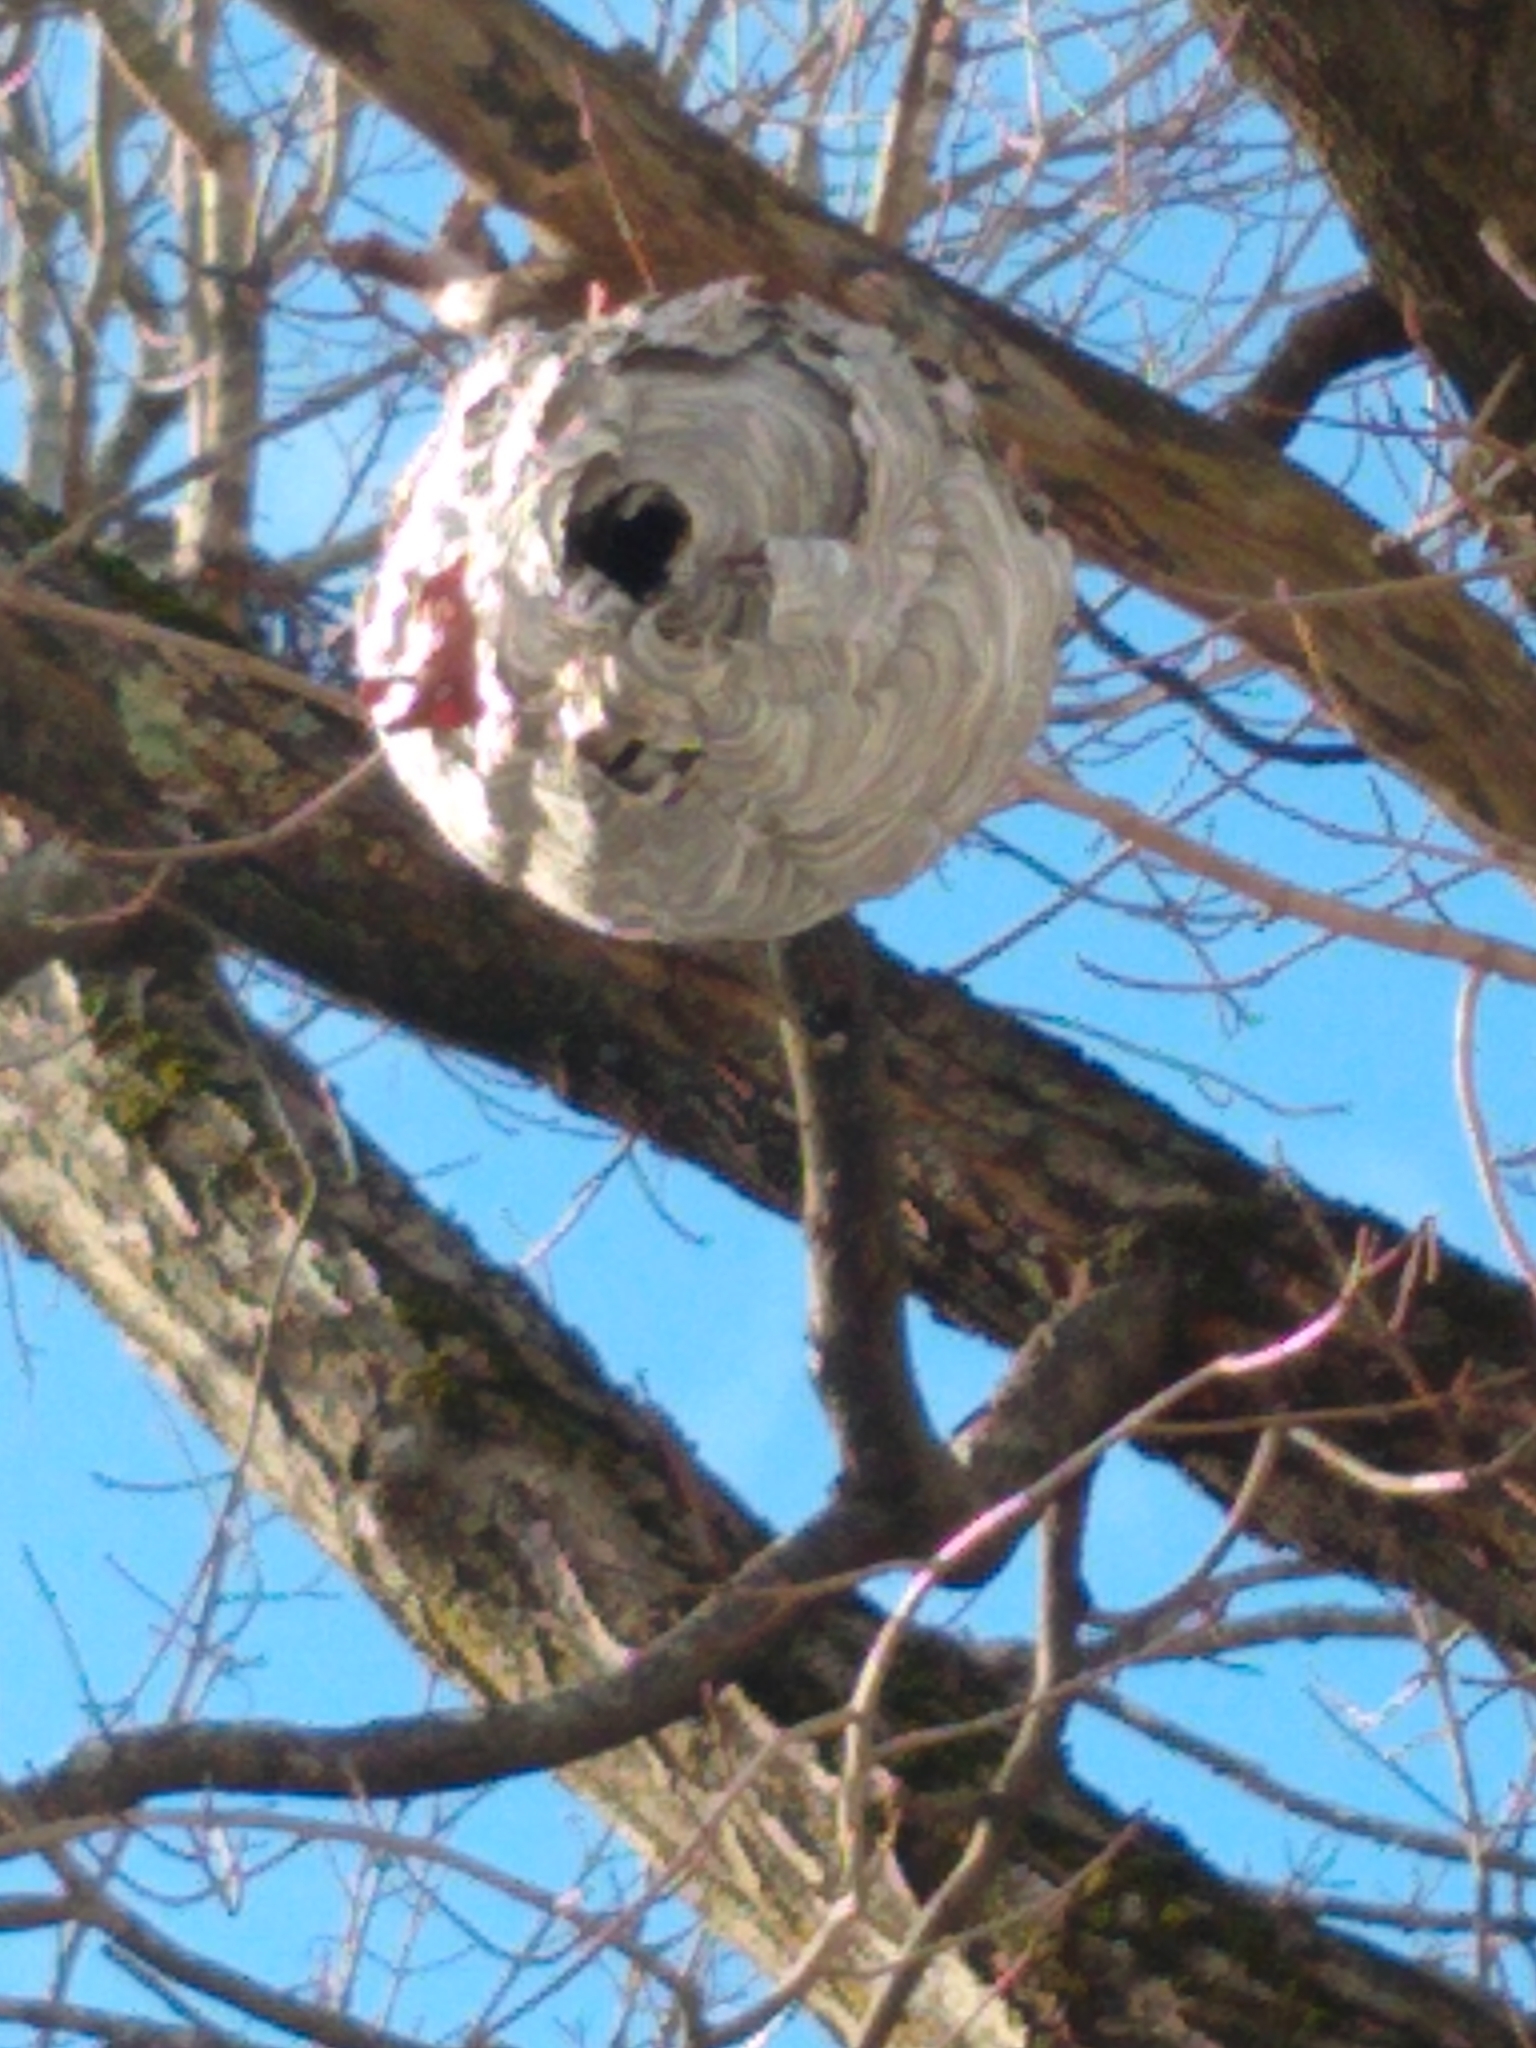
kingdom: Animalia
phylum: Arthropoda
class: Insecta
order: Hymenoptera
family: Vespidae
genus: Dolichovespula
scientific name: Dolichovespula maculata
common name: Bald-faced hornet
